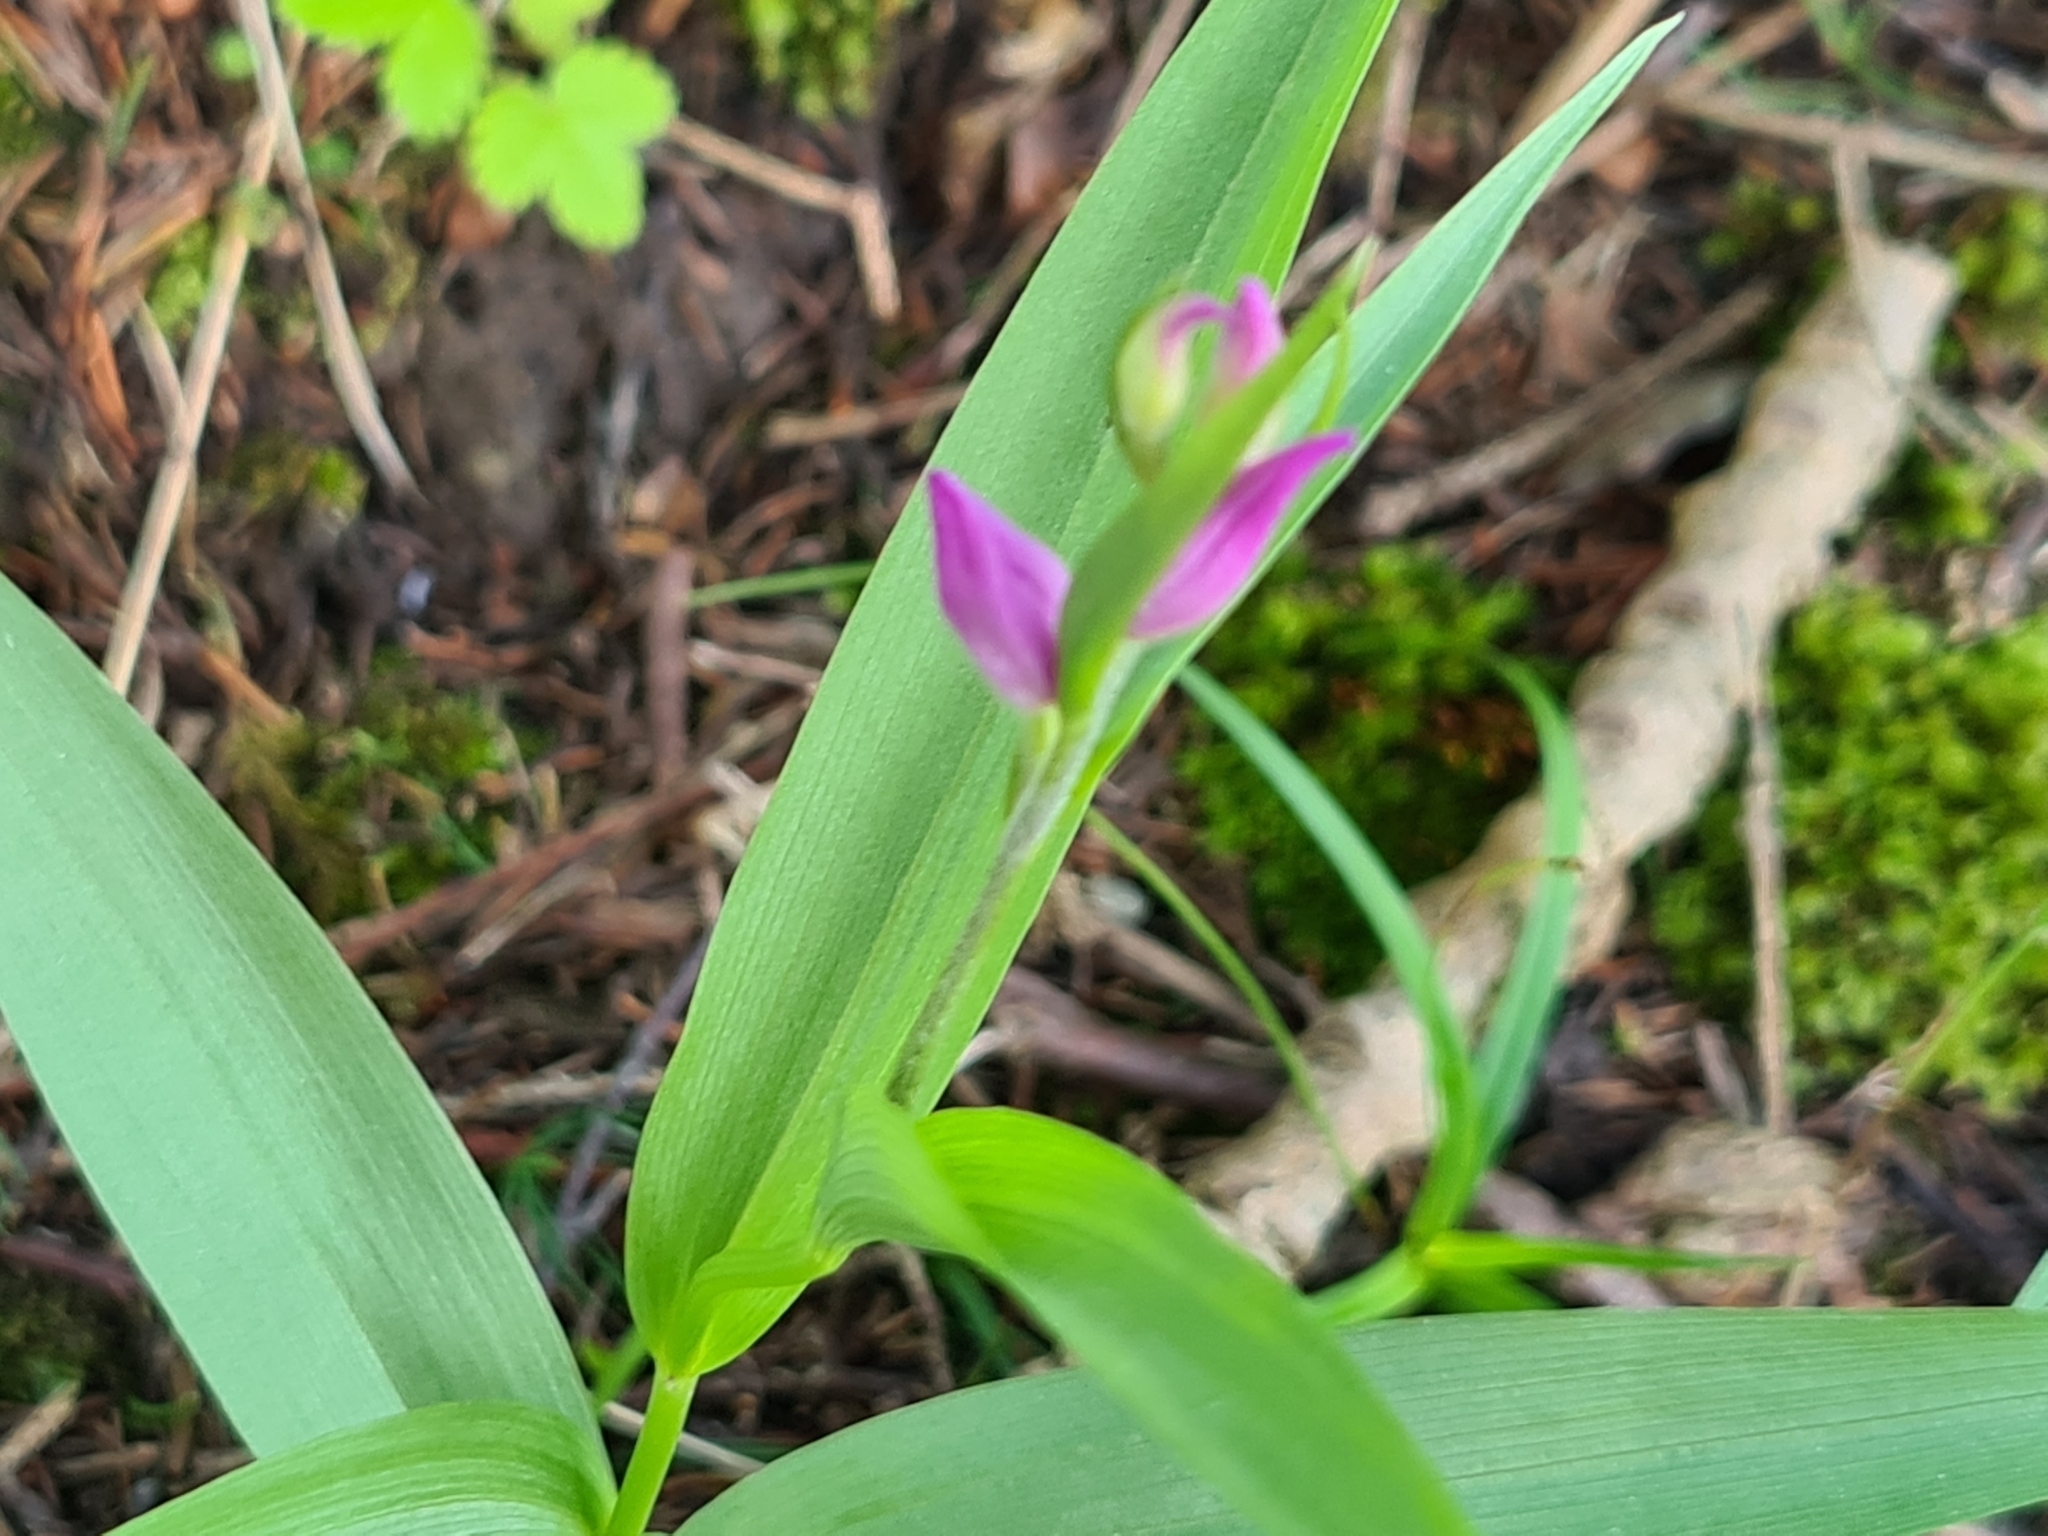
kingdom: Plantae
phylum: Tracheophyta
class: Liliopsida
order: Asparagales
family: Orchidaceae
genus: Cephalanthera
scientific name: Cephalanthera rubra
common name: Red helleborine
